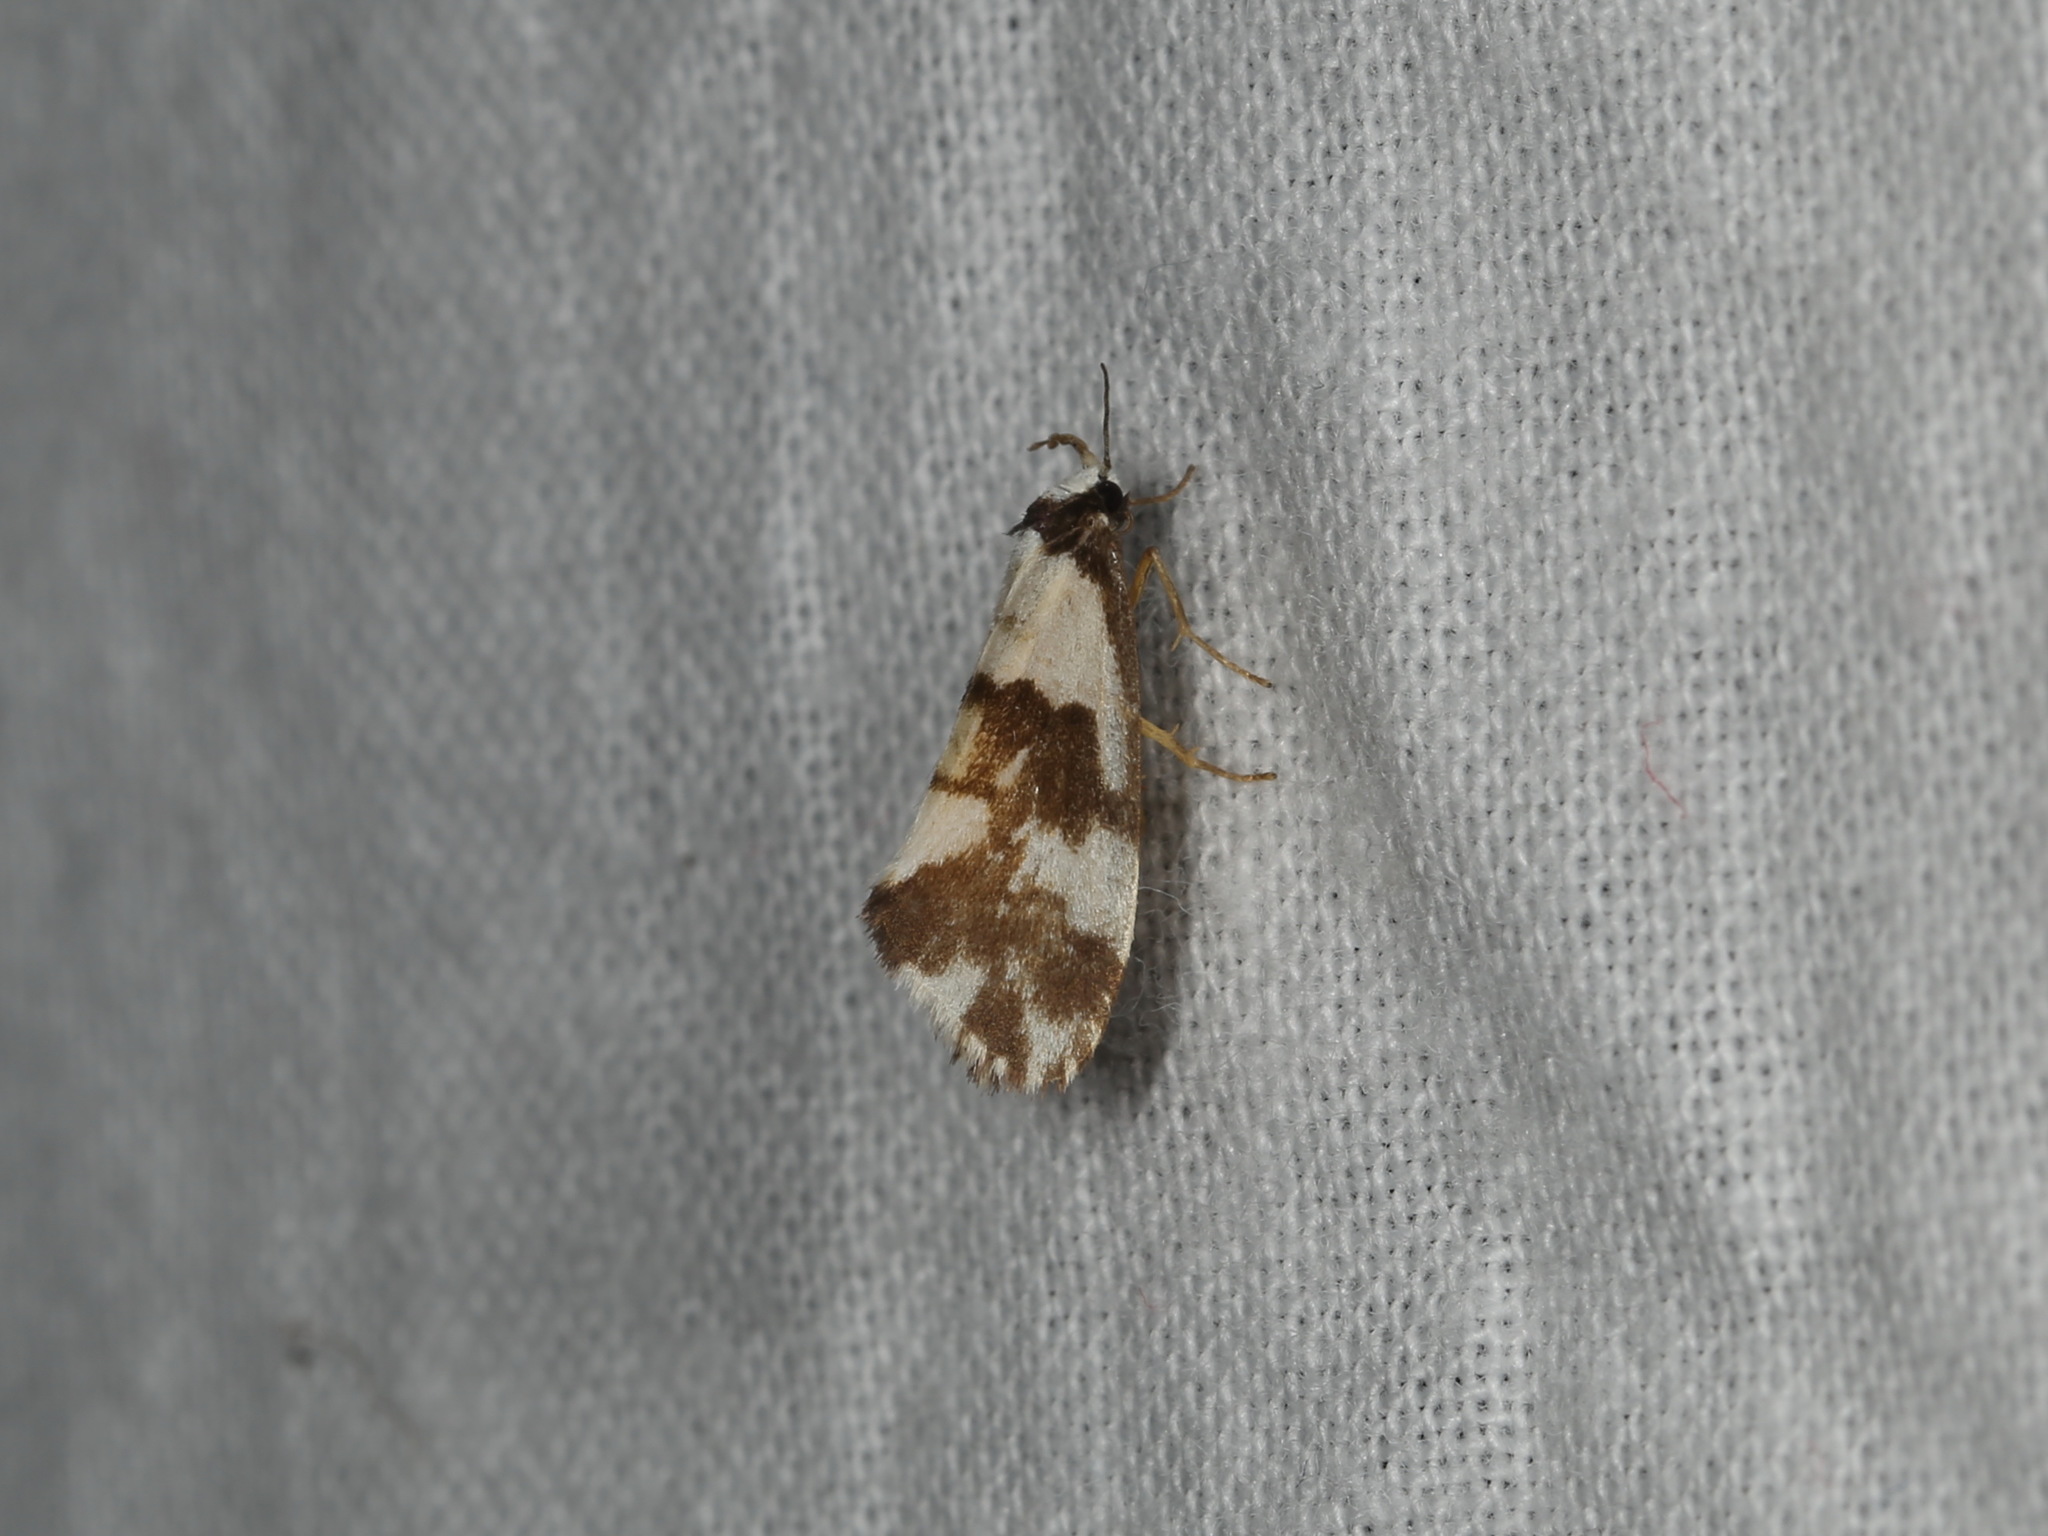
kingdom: Animalia
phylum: Arthropoda
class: Insecta
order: Lepidoptera
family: Erebidae
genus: Philenora
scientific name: Philenora aspectalella
